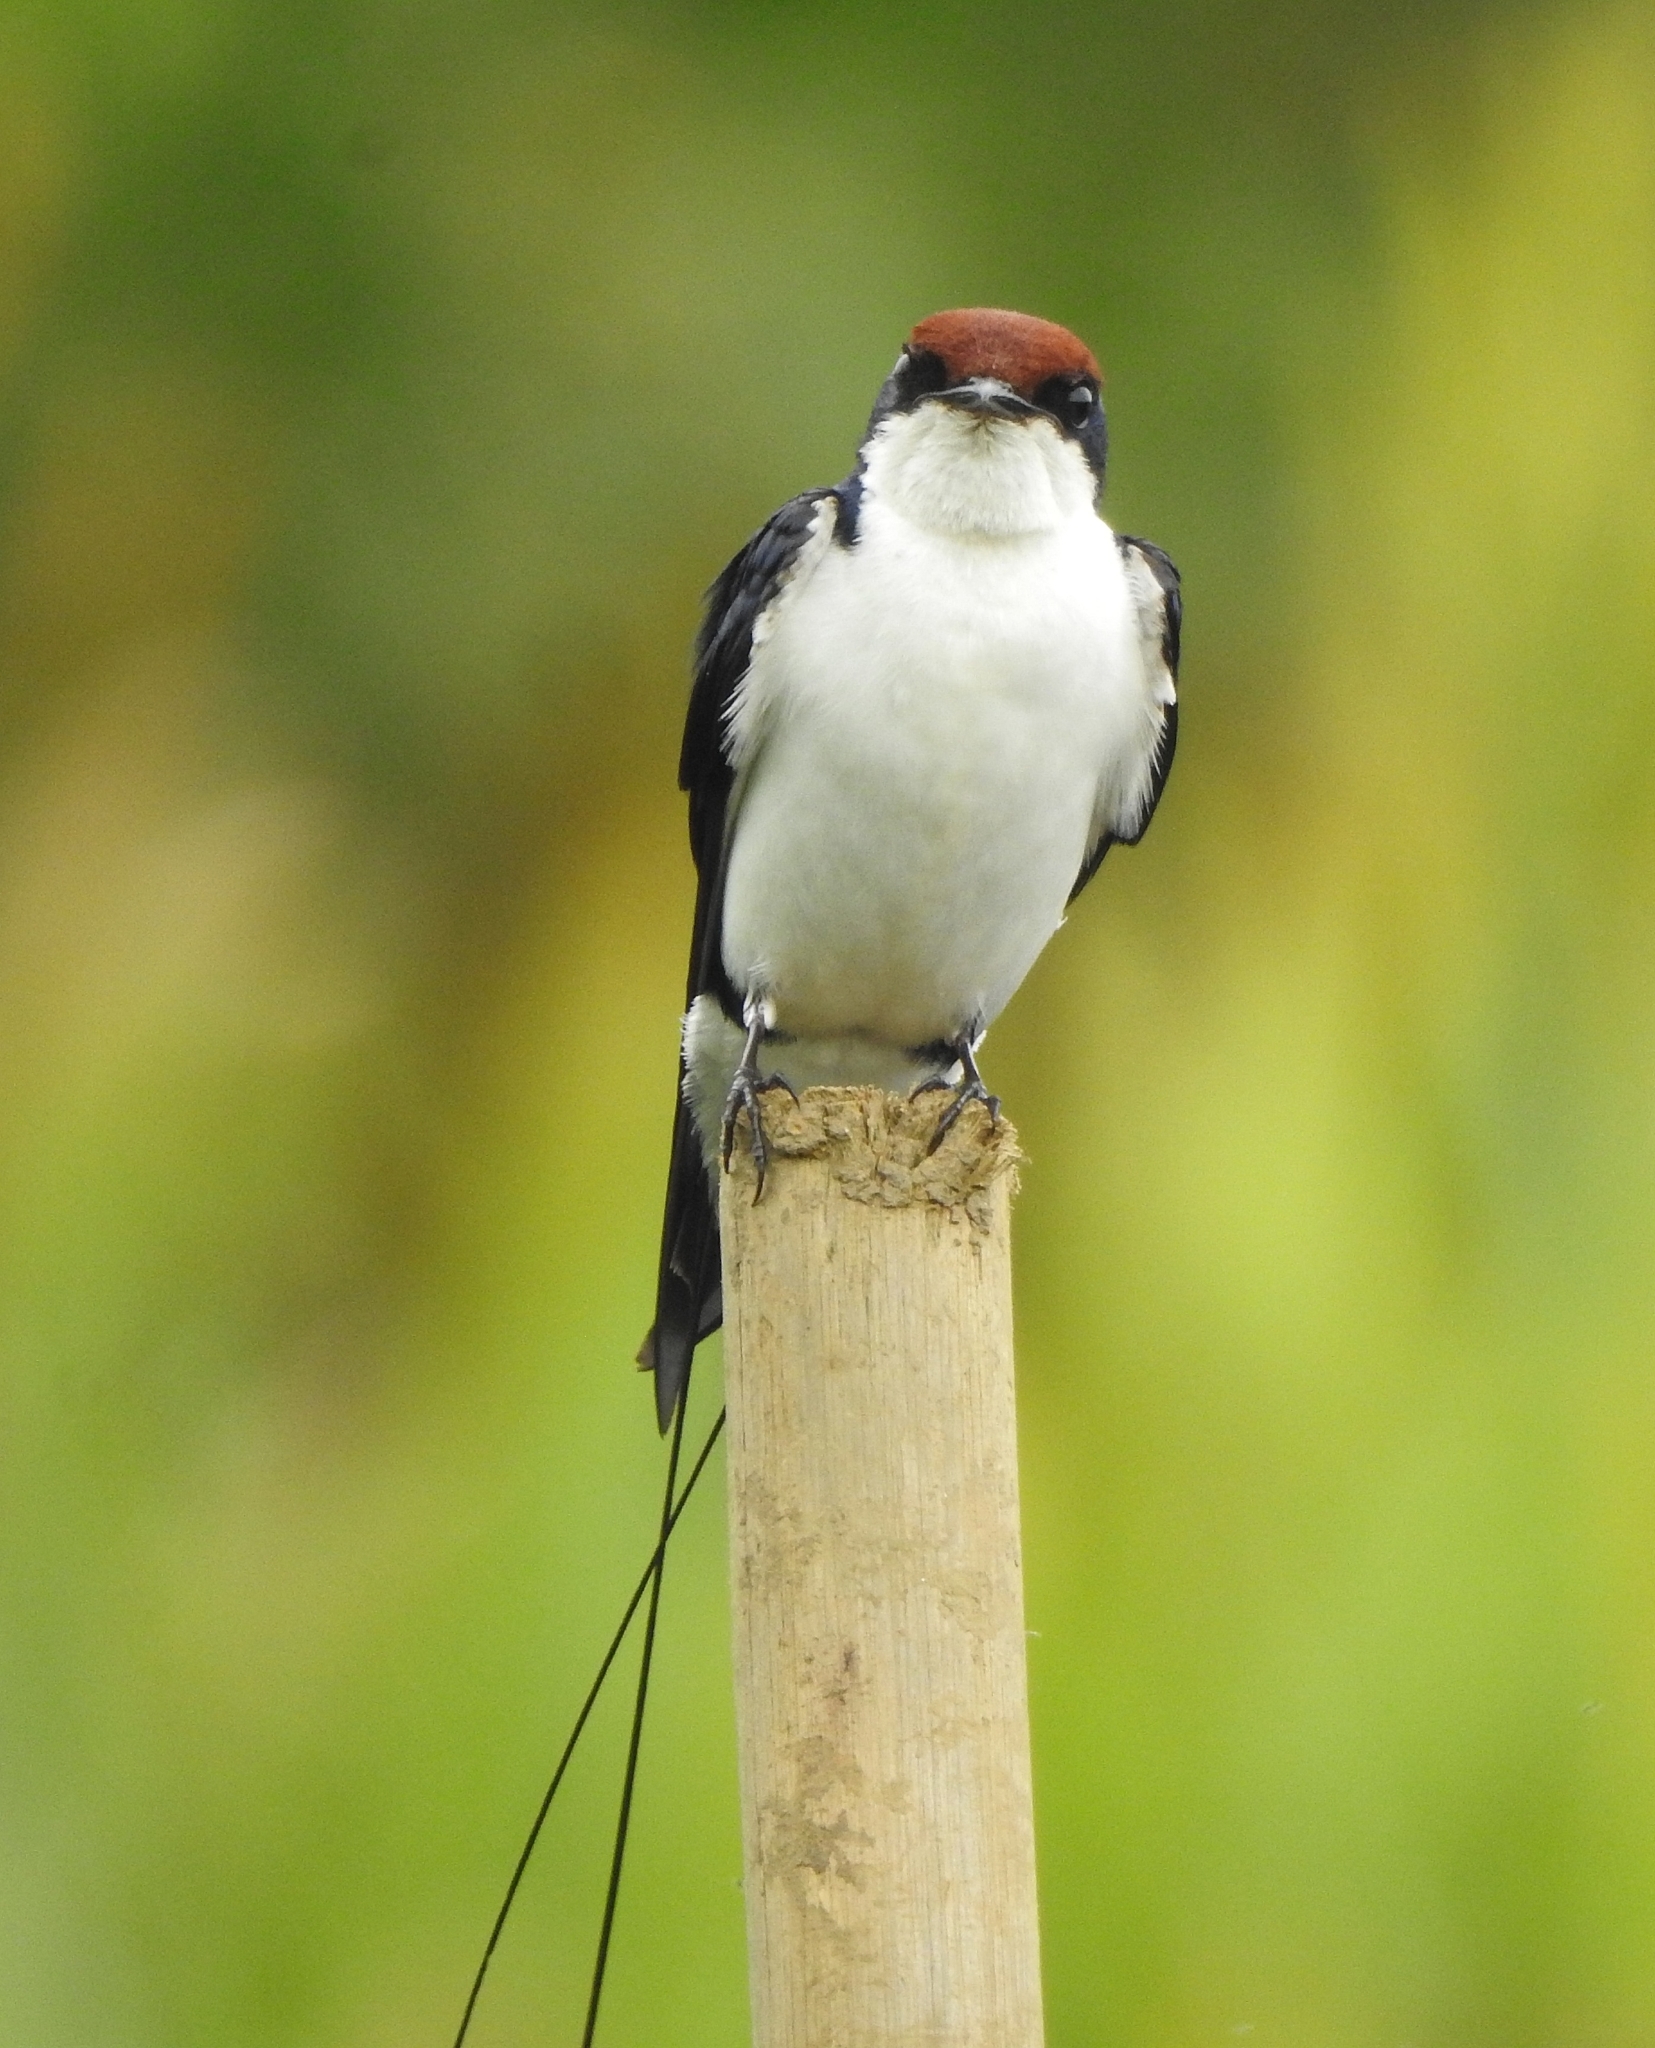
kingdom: Animalia
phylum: Chordata
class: Aves
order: Passeriformes
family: Hirundinidae
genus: Hirundo
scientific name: Hirundo smithii
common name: Wire-tailed swallow
